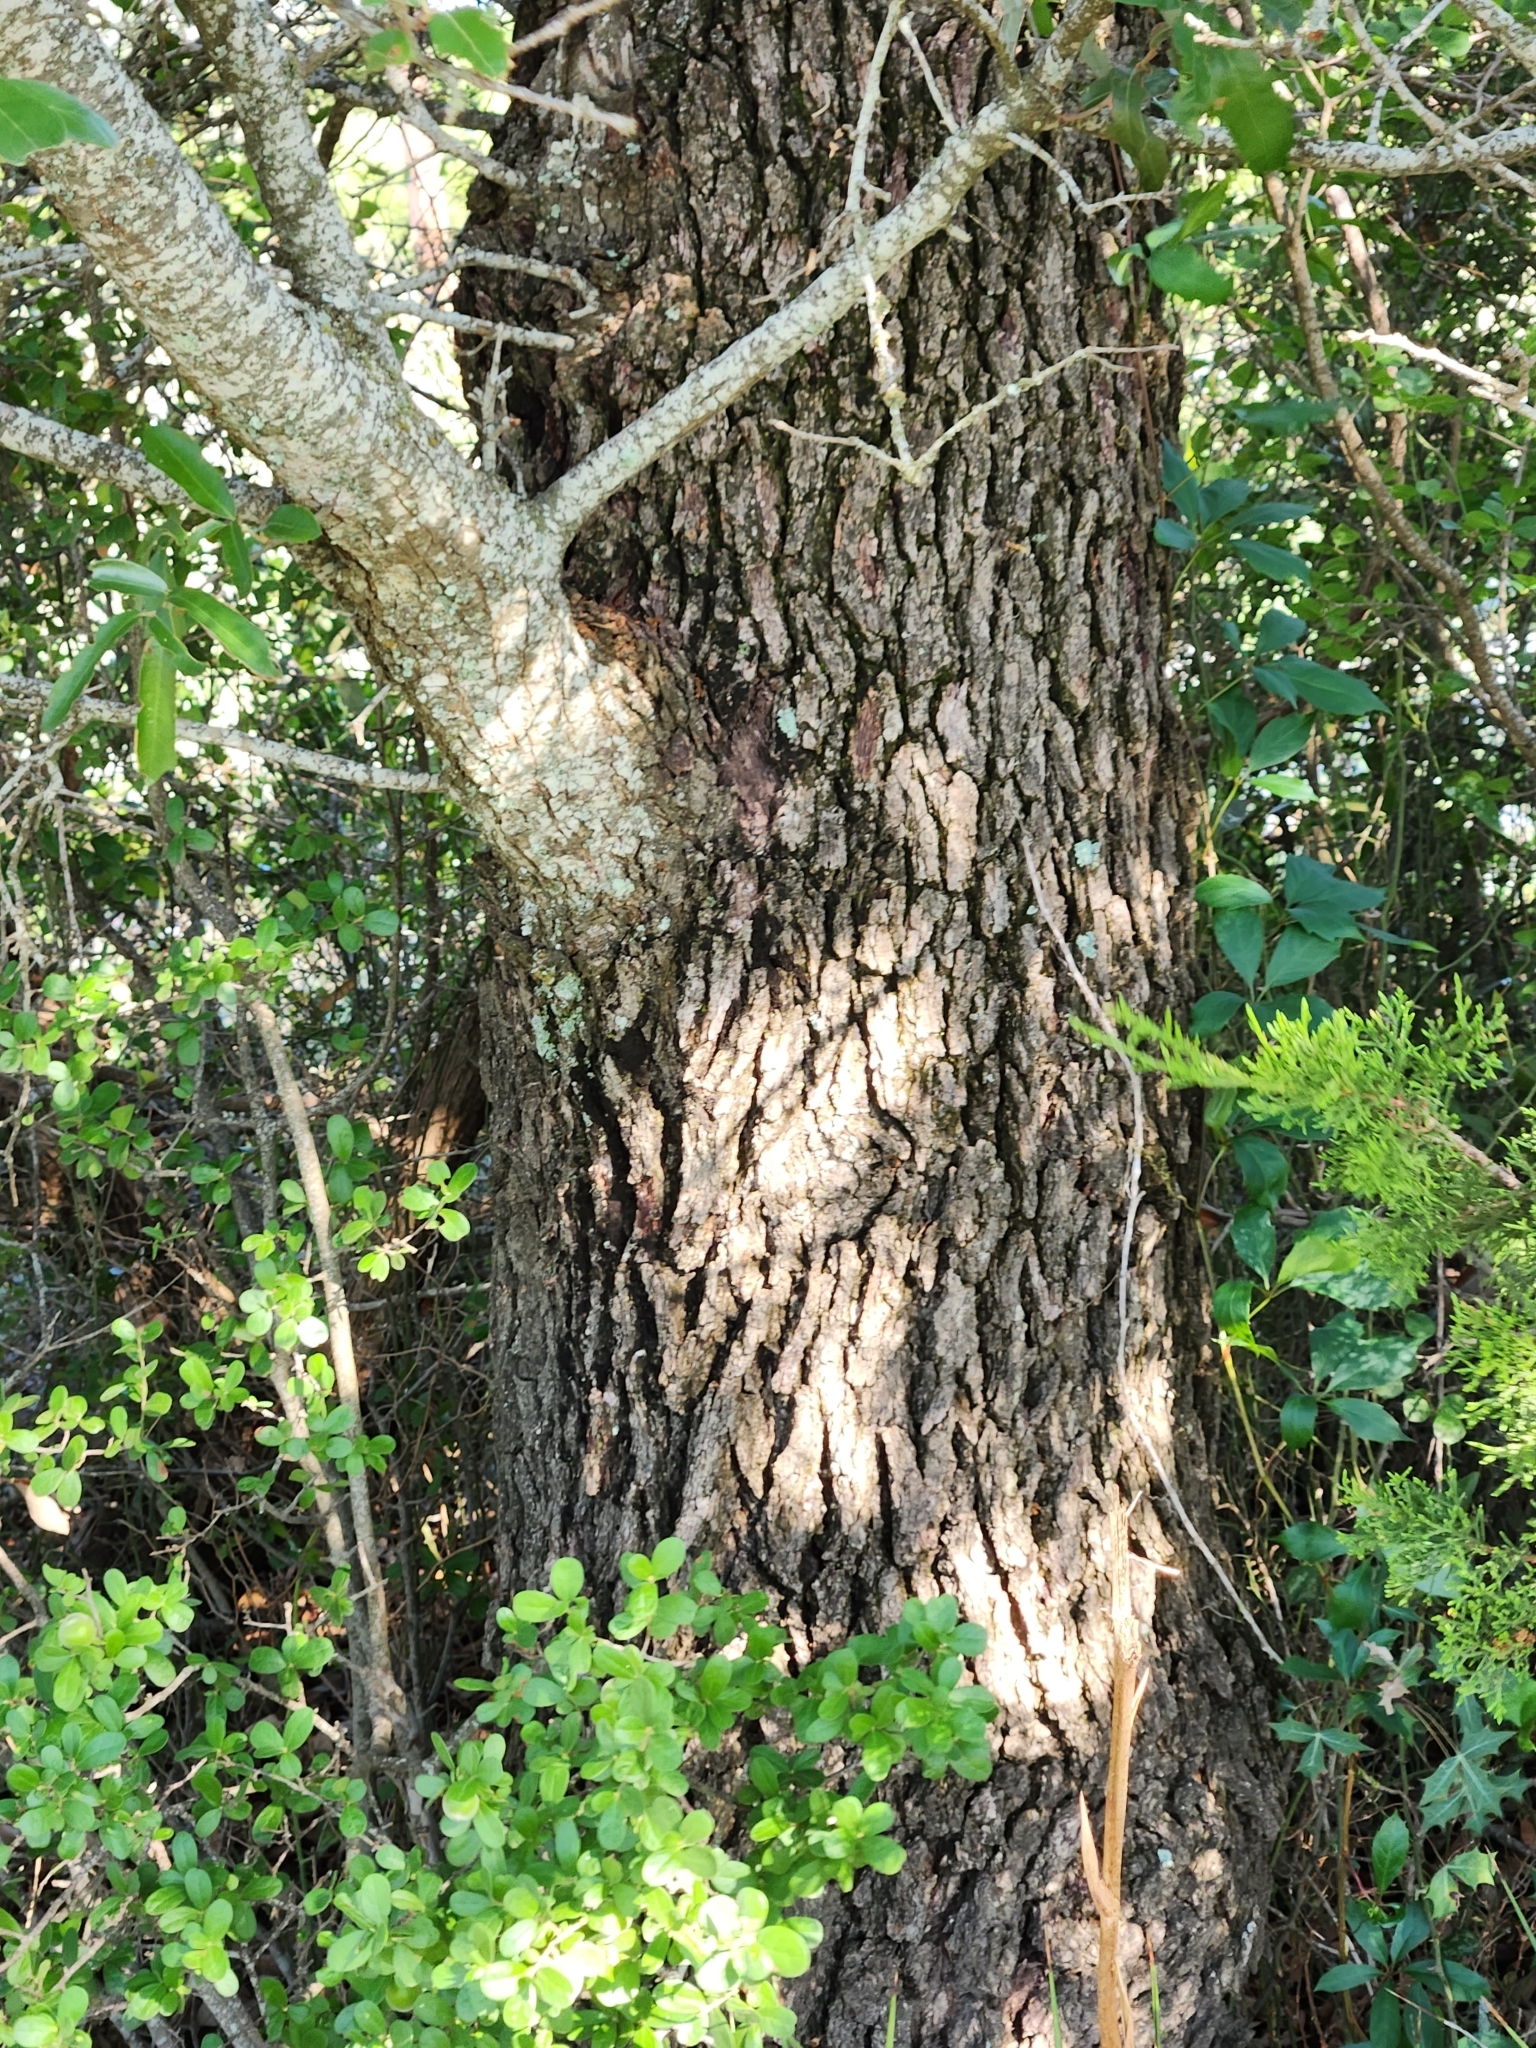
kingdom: Plantae
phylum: Tracheophyta
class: Magnoliopsida
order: Fagales
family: Fagaceae
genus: Quercus
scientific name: Quercus fusiformis
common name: Texas live oak
